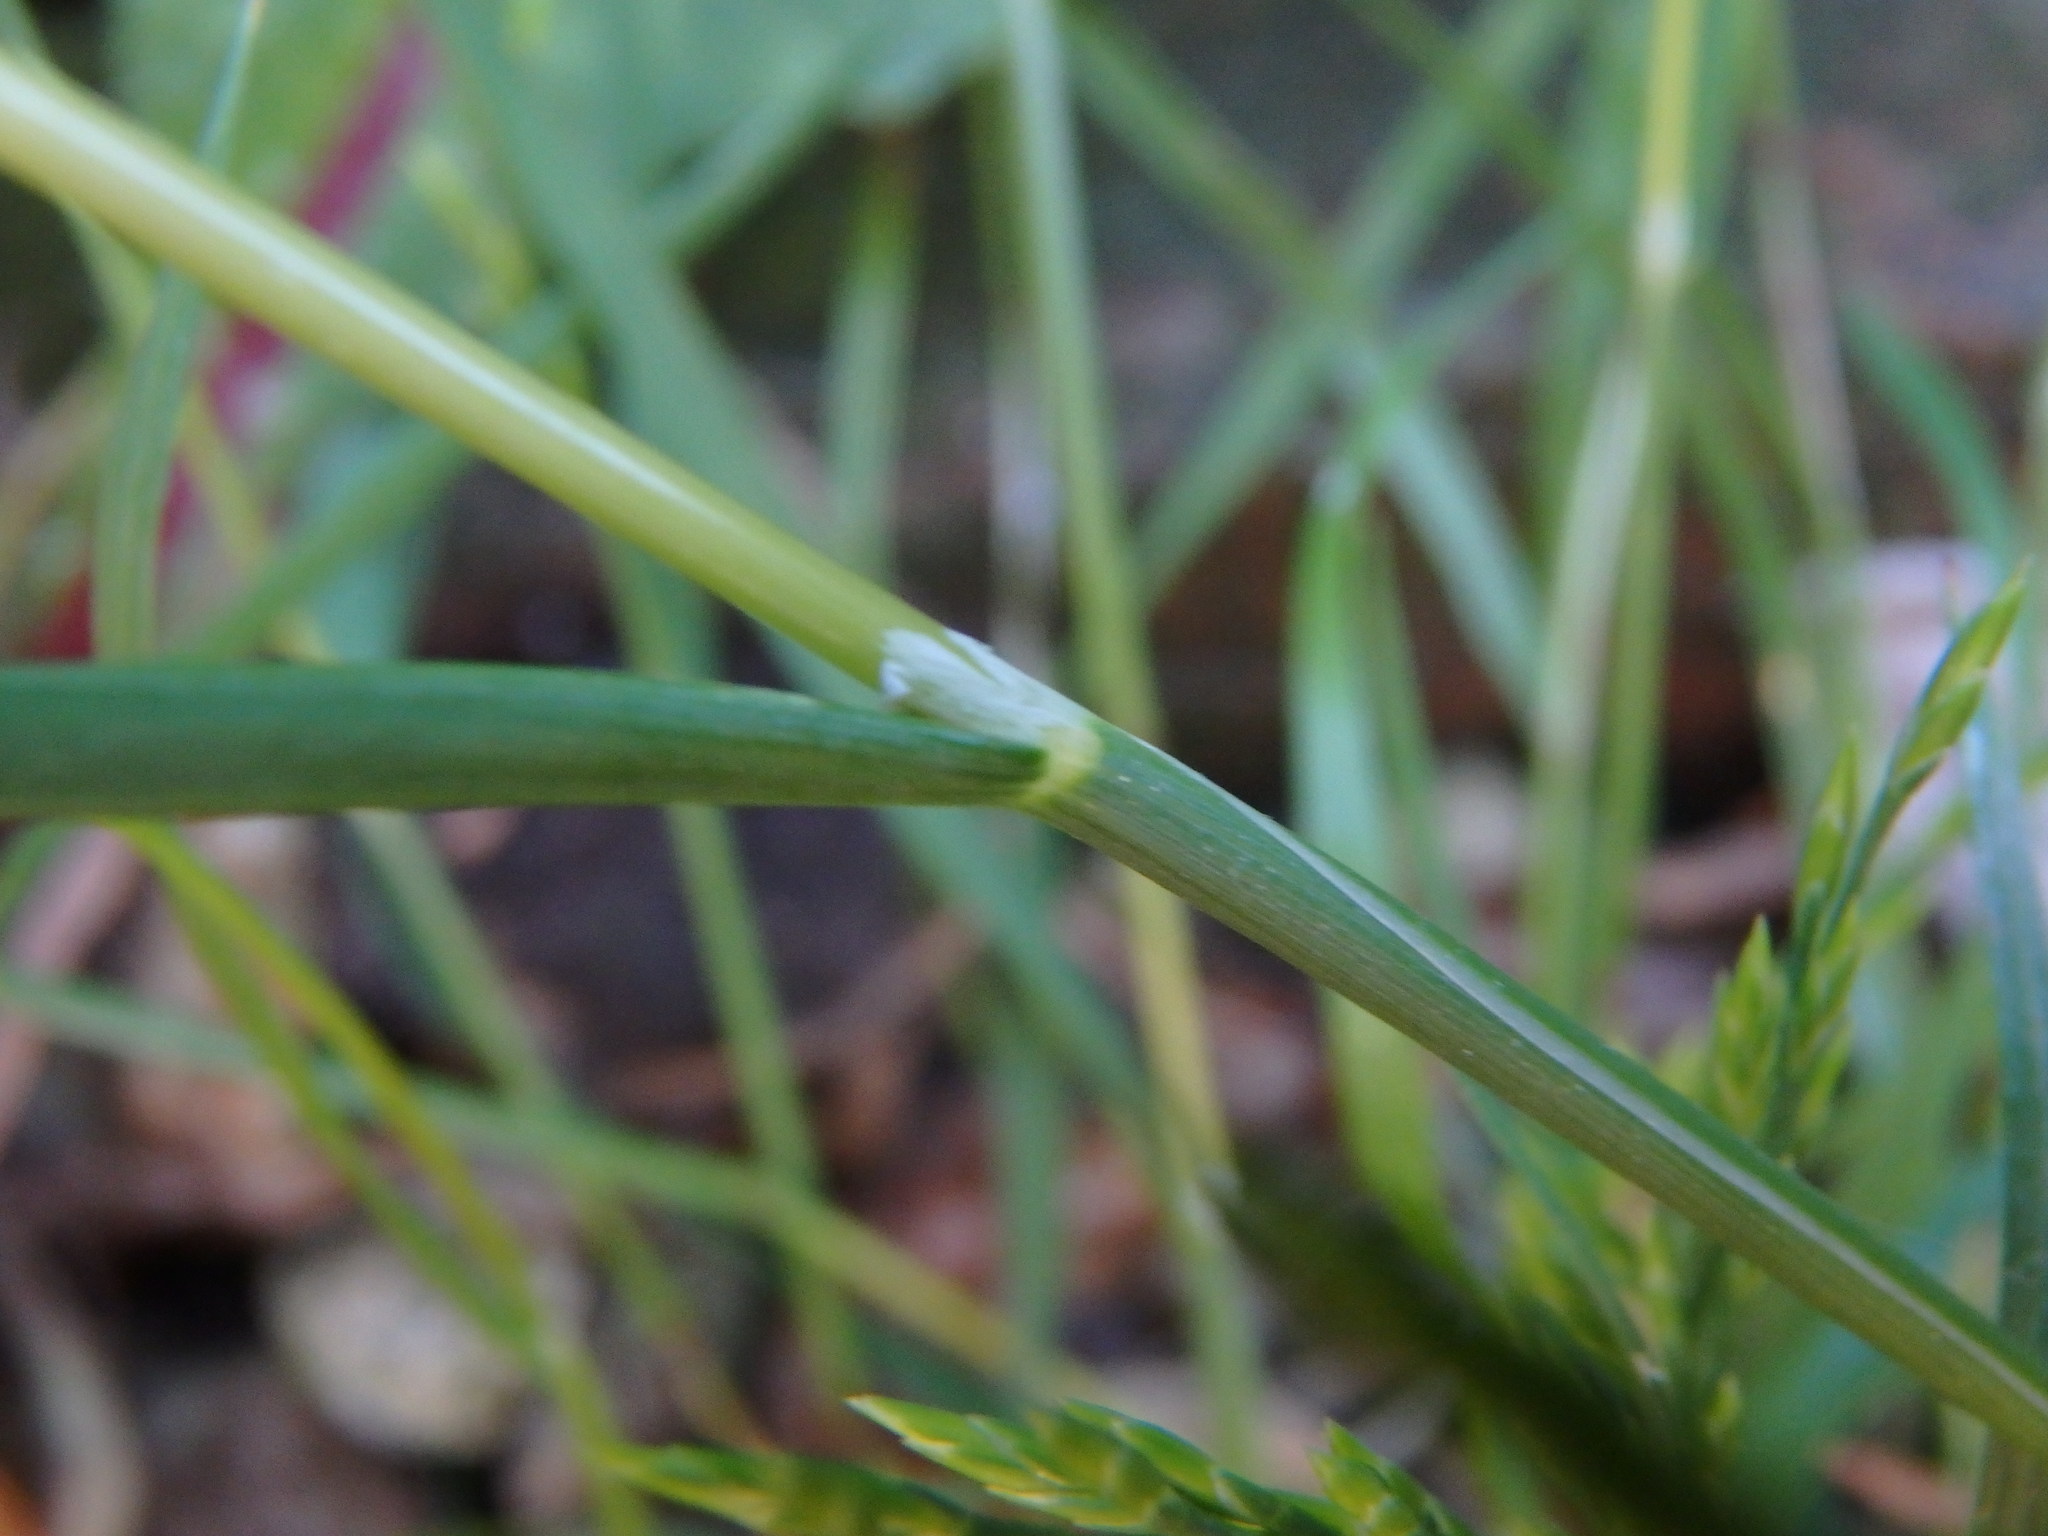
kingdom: Plantae
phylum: Tracheophyta
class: Liliopsida
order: Poales
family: Poaceae
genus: Catapodium
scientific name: Catapodium rigidum
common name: Fern-grass
